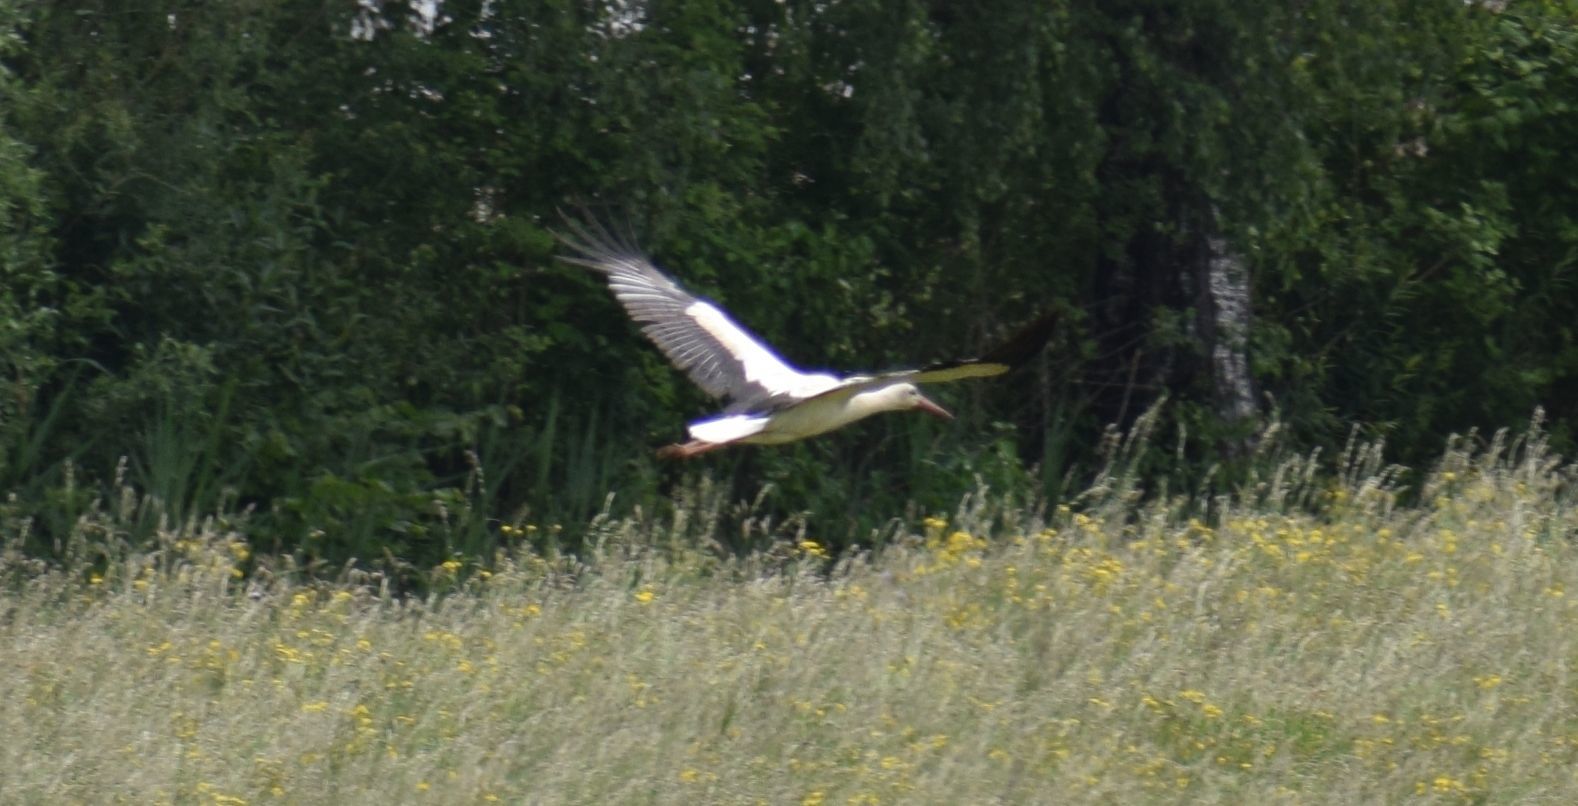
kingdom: Animalia
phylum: Chordata
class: Aves
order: Ciconiiformes
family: Ciconiidae
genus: Ciconia
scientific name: Ciconia ciconia
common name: White stork
